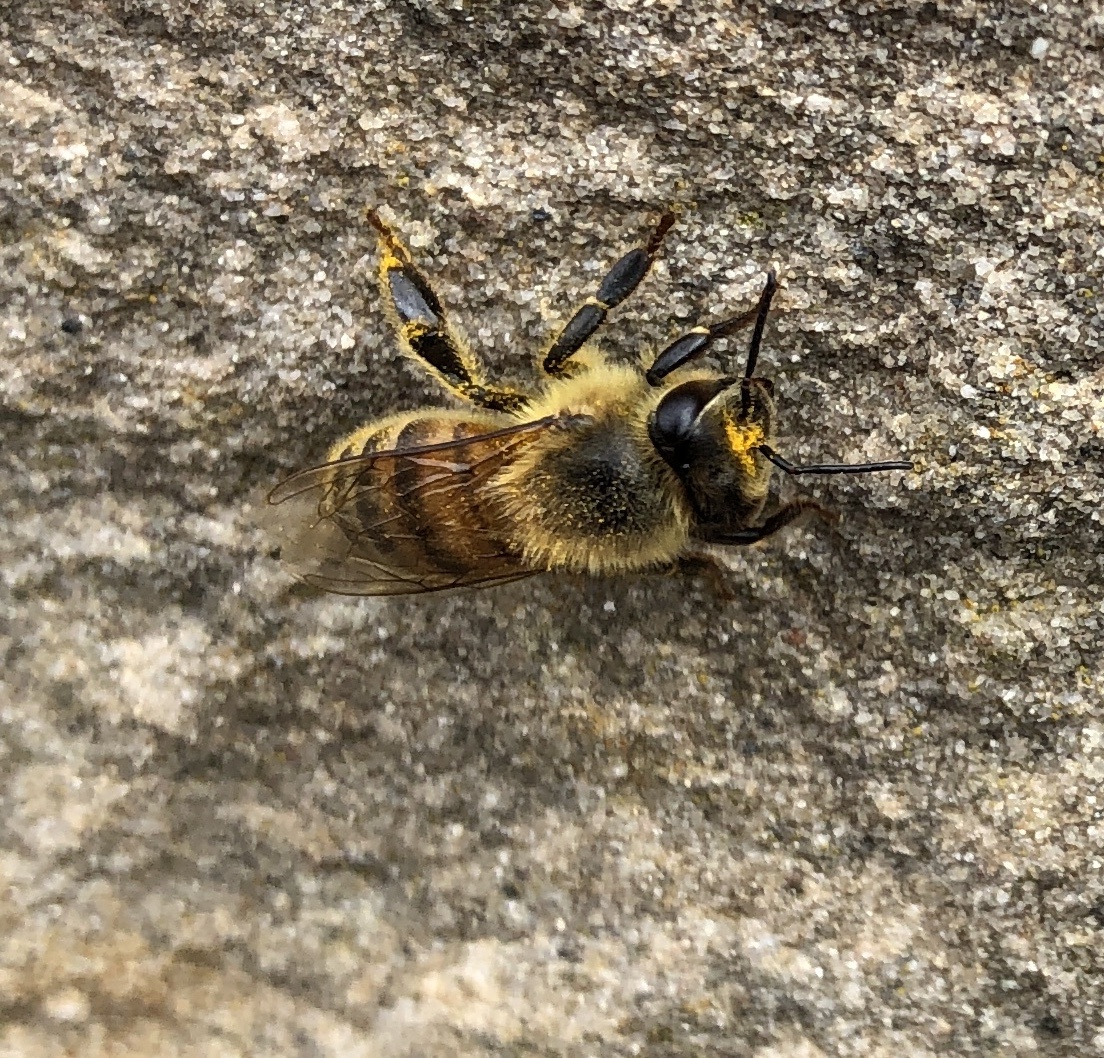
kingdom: Animalia
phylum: Arthropoda
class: Insecta
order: Hymenoptera
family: Apidae
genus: Apis
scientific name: Apis mellifera
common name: Honey bee
